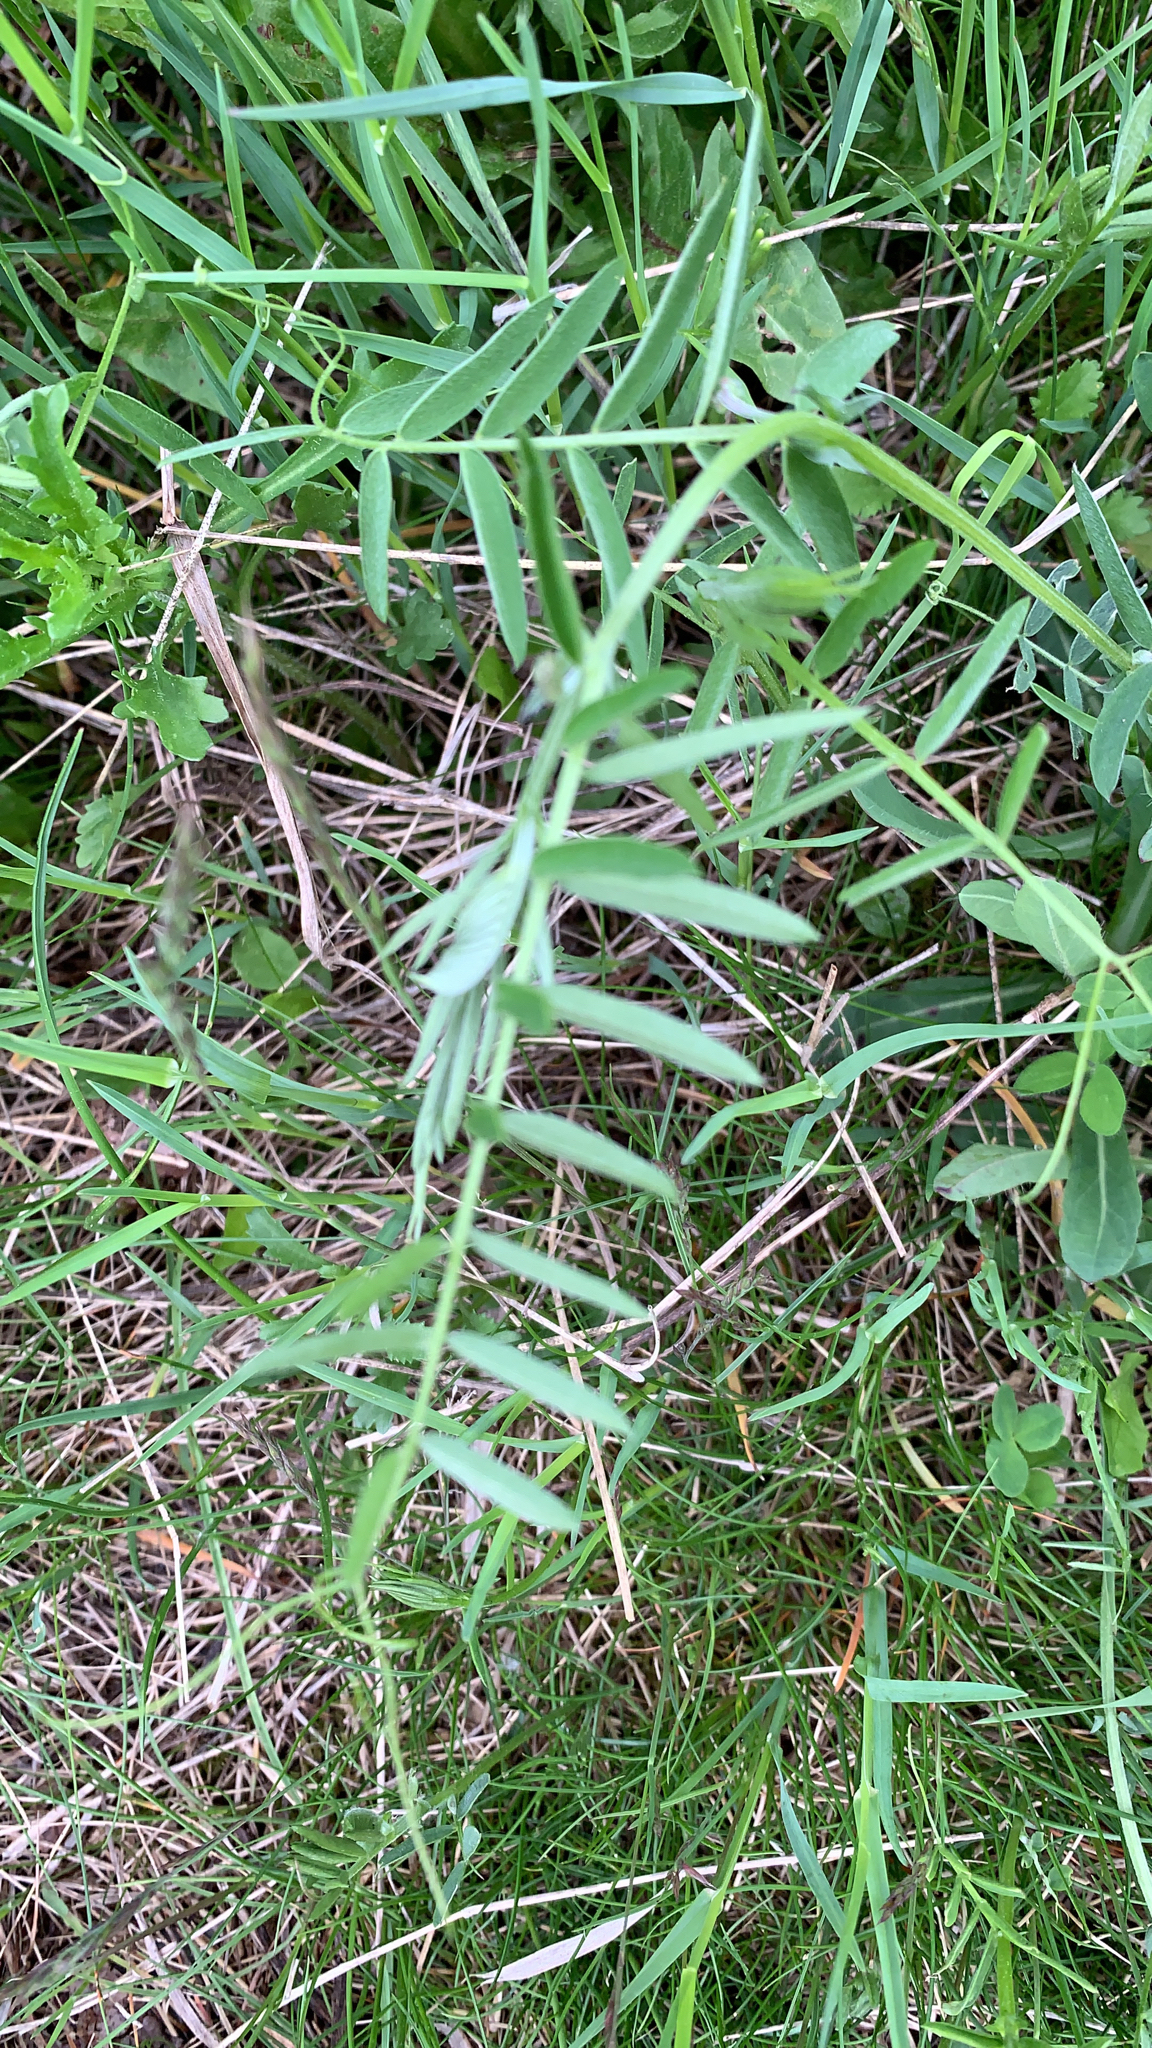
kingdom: Plantae
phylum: Tracheophyta
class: Magnoliopsida
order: Fabales
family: Fabaceae
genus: Vicia
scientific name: Vicia cracca
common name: Bird vetch
